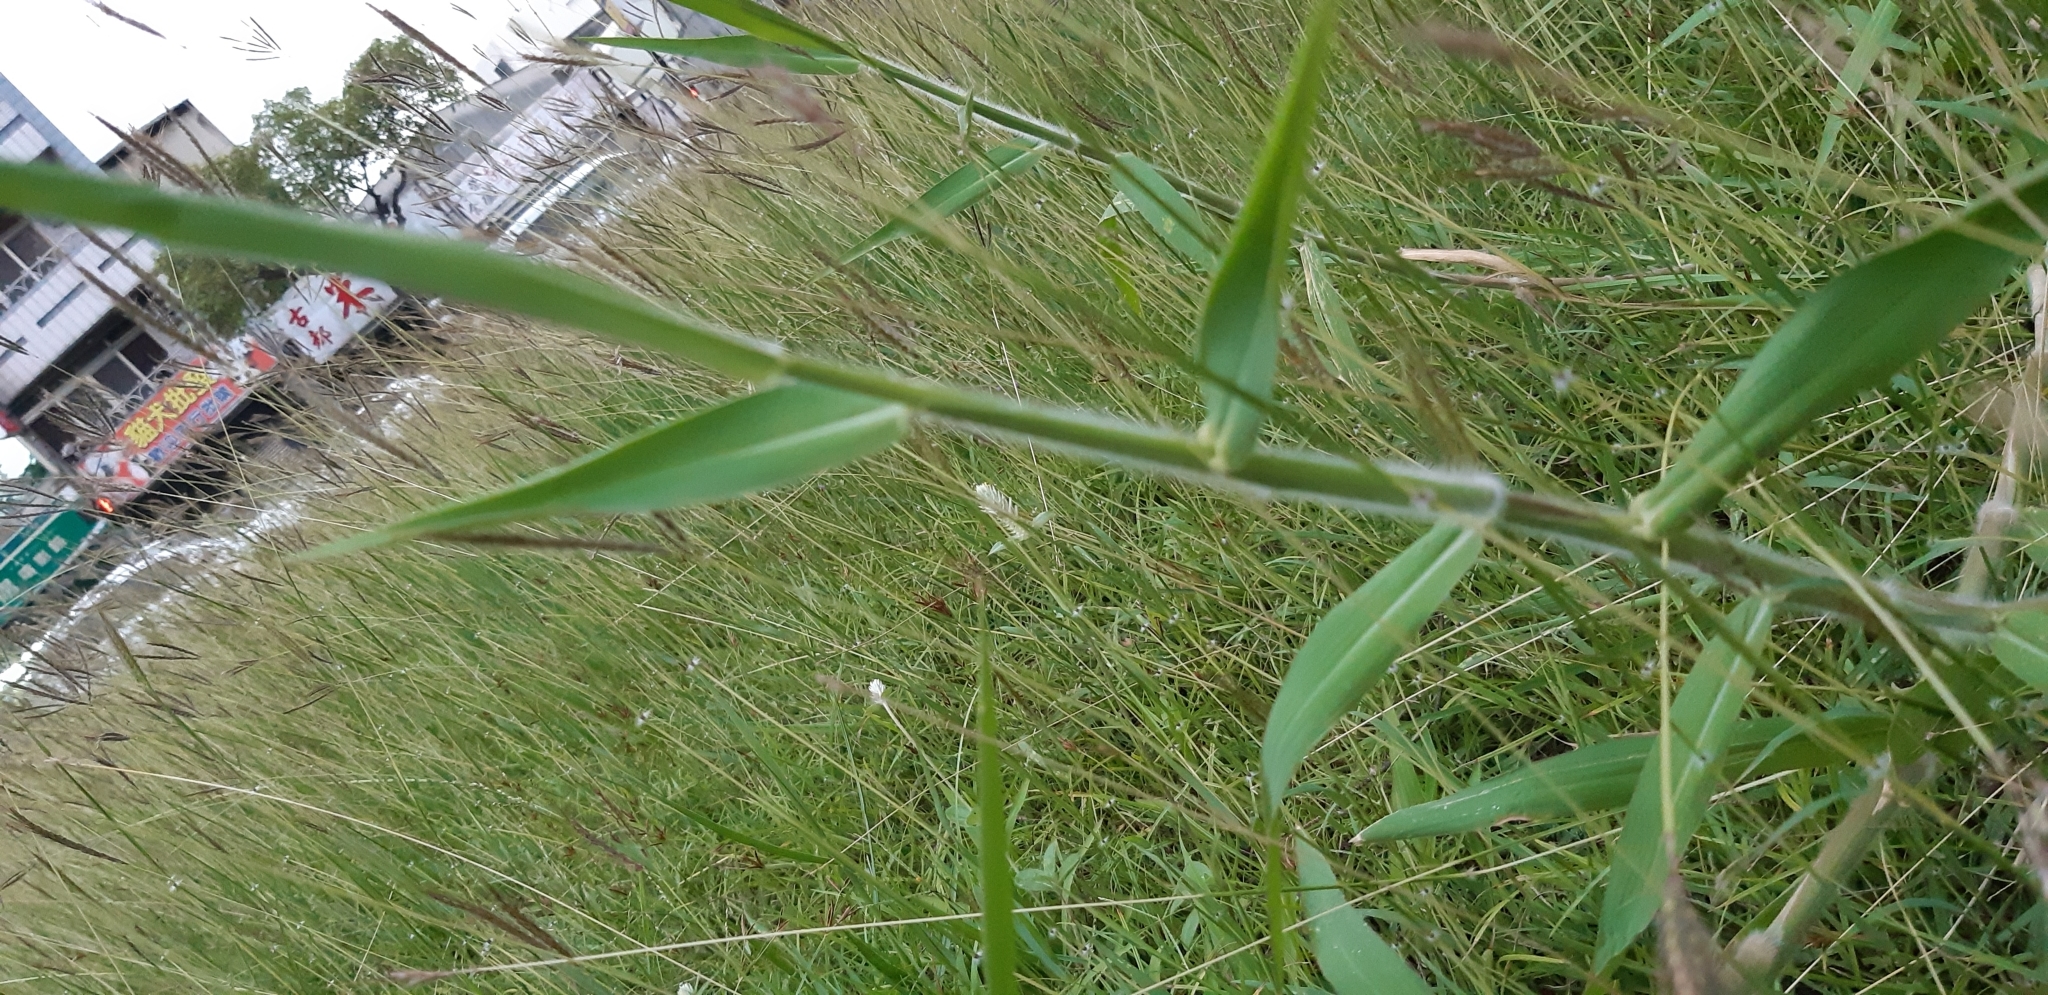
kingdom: Plantae
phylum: Tracheophyta
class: Liliopsida
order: Poales
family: Poaceae
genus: Urochloa
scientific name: Urochloa mutica
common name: Para grass
